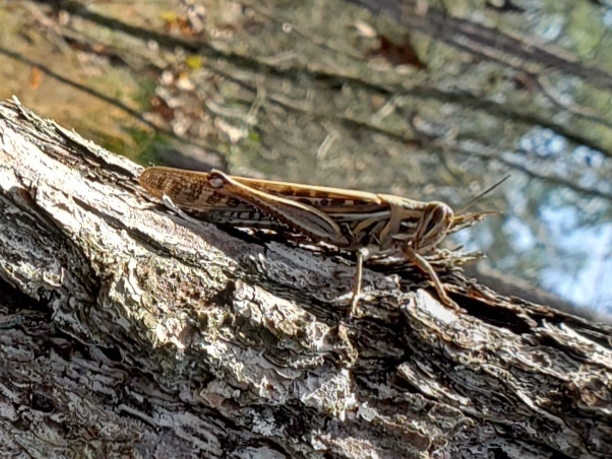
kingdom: Animalia
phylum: Arthropoda
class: Insecta
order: Orthoptera
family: Acrididae
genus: Schistocerca
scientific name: Schistocerca americana
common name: American bird locust
